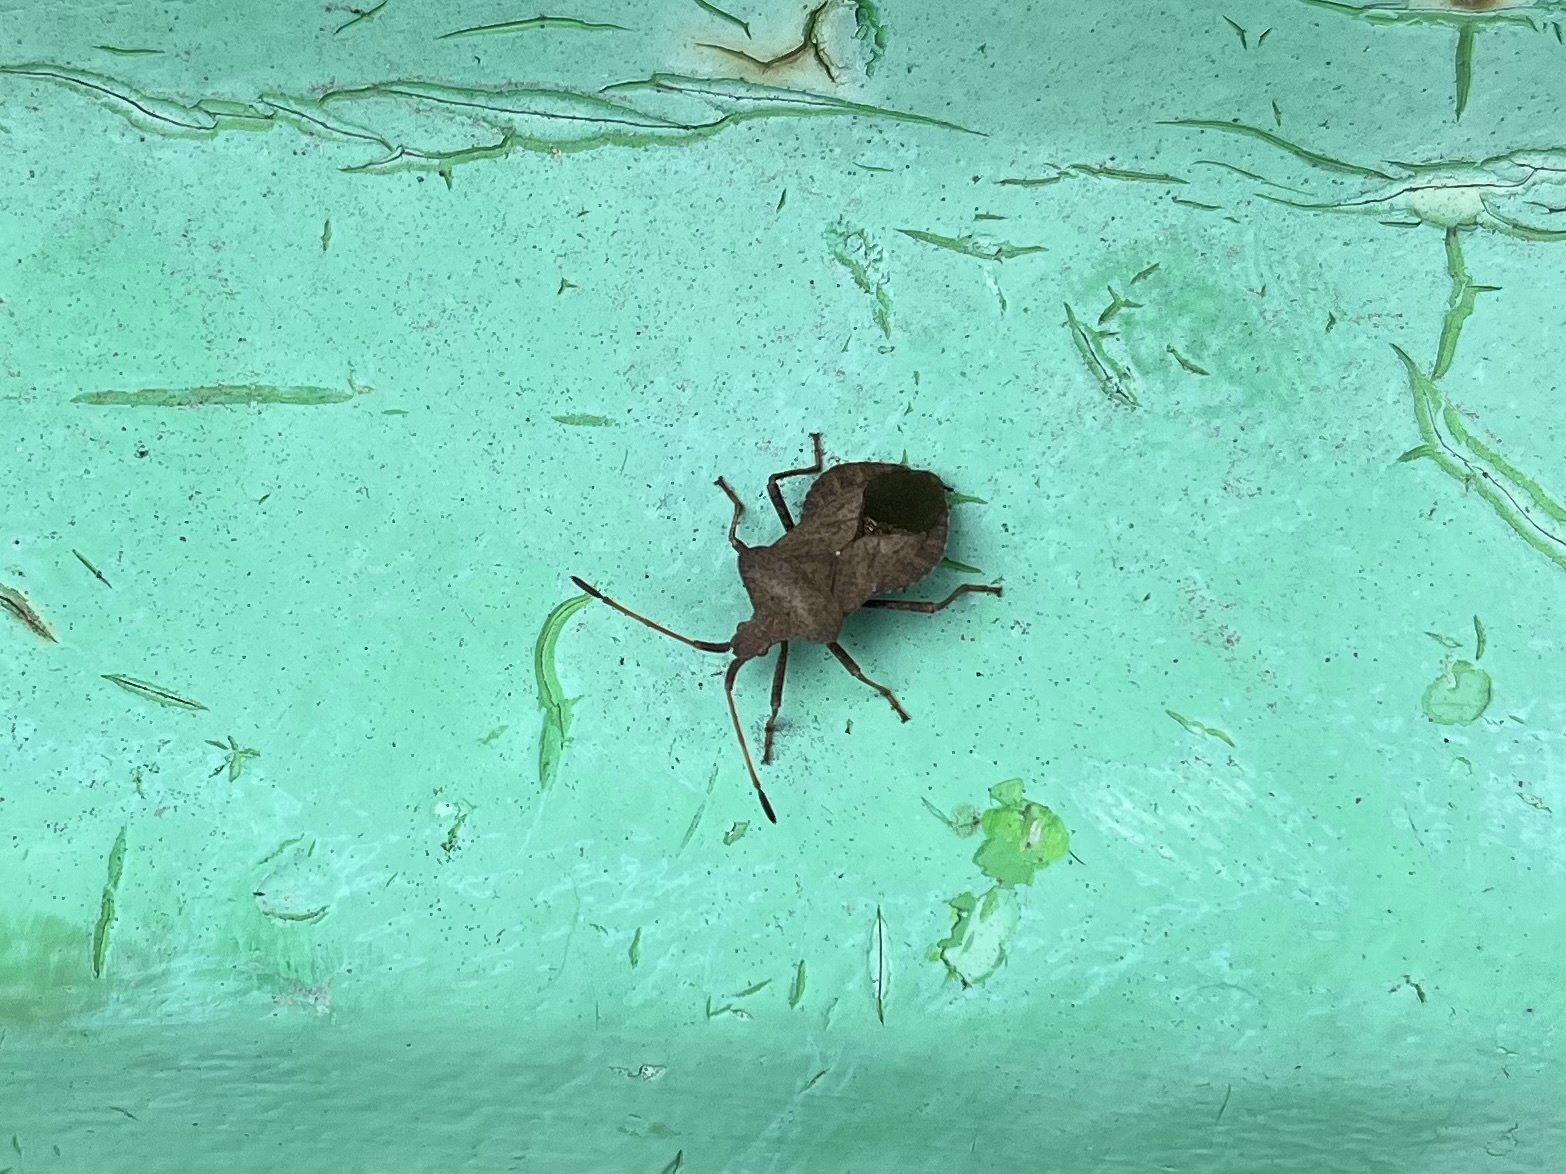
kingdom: Animalia
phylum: Arthropoda
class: Insecta
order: Hemiptera
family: Coreidae
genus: Coreus
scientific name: Coreus marginatus
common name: Dock bug
